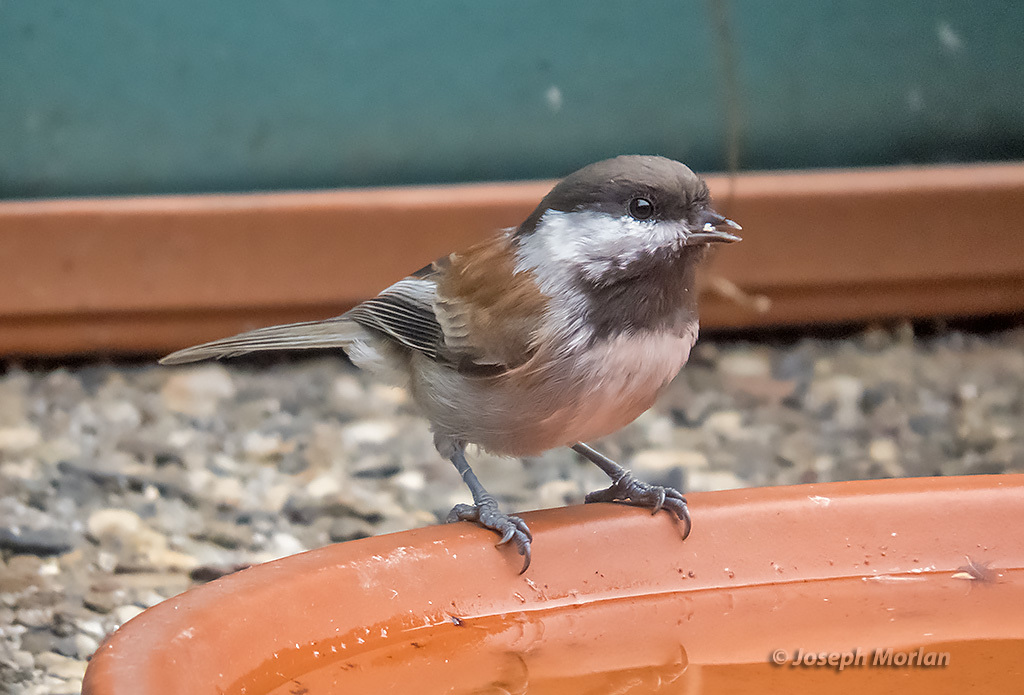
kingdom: Animalia
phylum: Chordata
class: Aves
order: Passeriformes
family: Paridae
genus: Poecile
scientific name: Poecile rufescens
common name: Chestnut-backed chickadee
